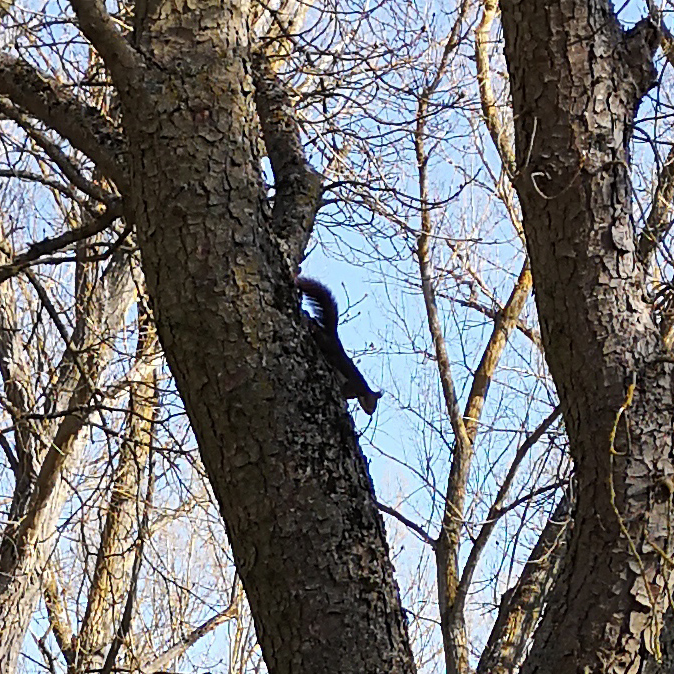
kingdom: Animalia
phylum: Chordata
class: Mammalia
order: Rodentia
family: Sciuridae
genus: Sciurus
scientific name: Sciurus vulgaris
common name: Eurasian red squirrel
